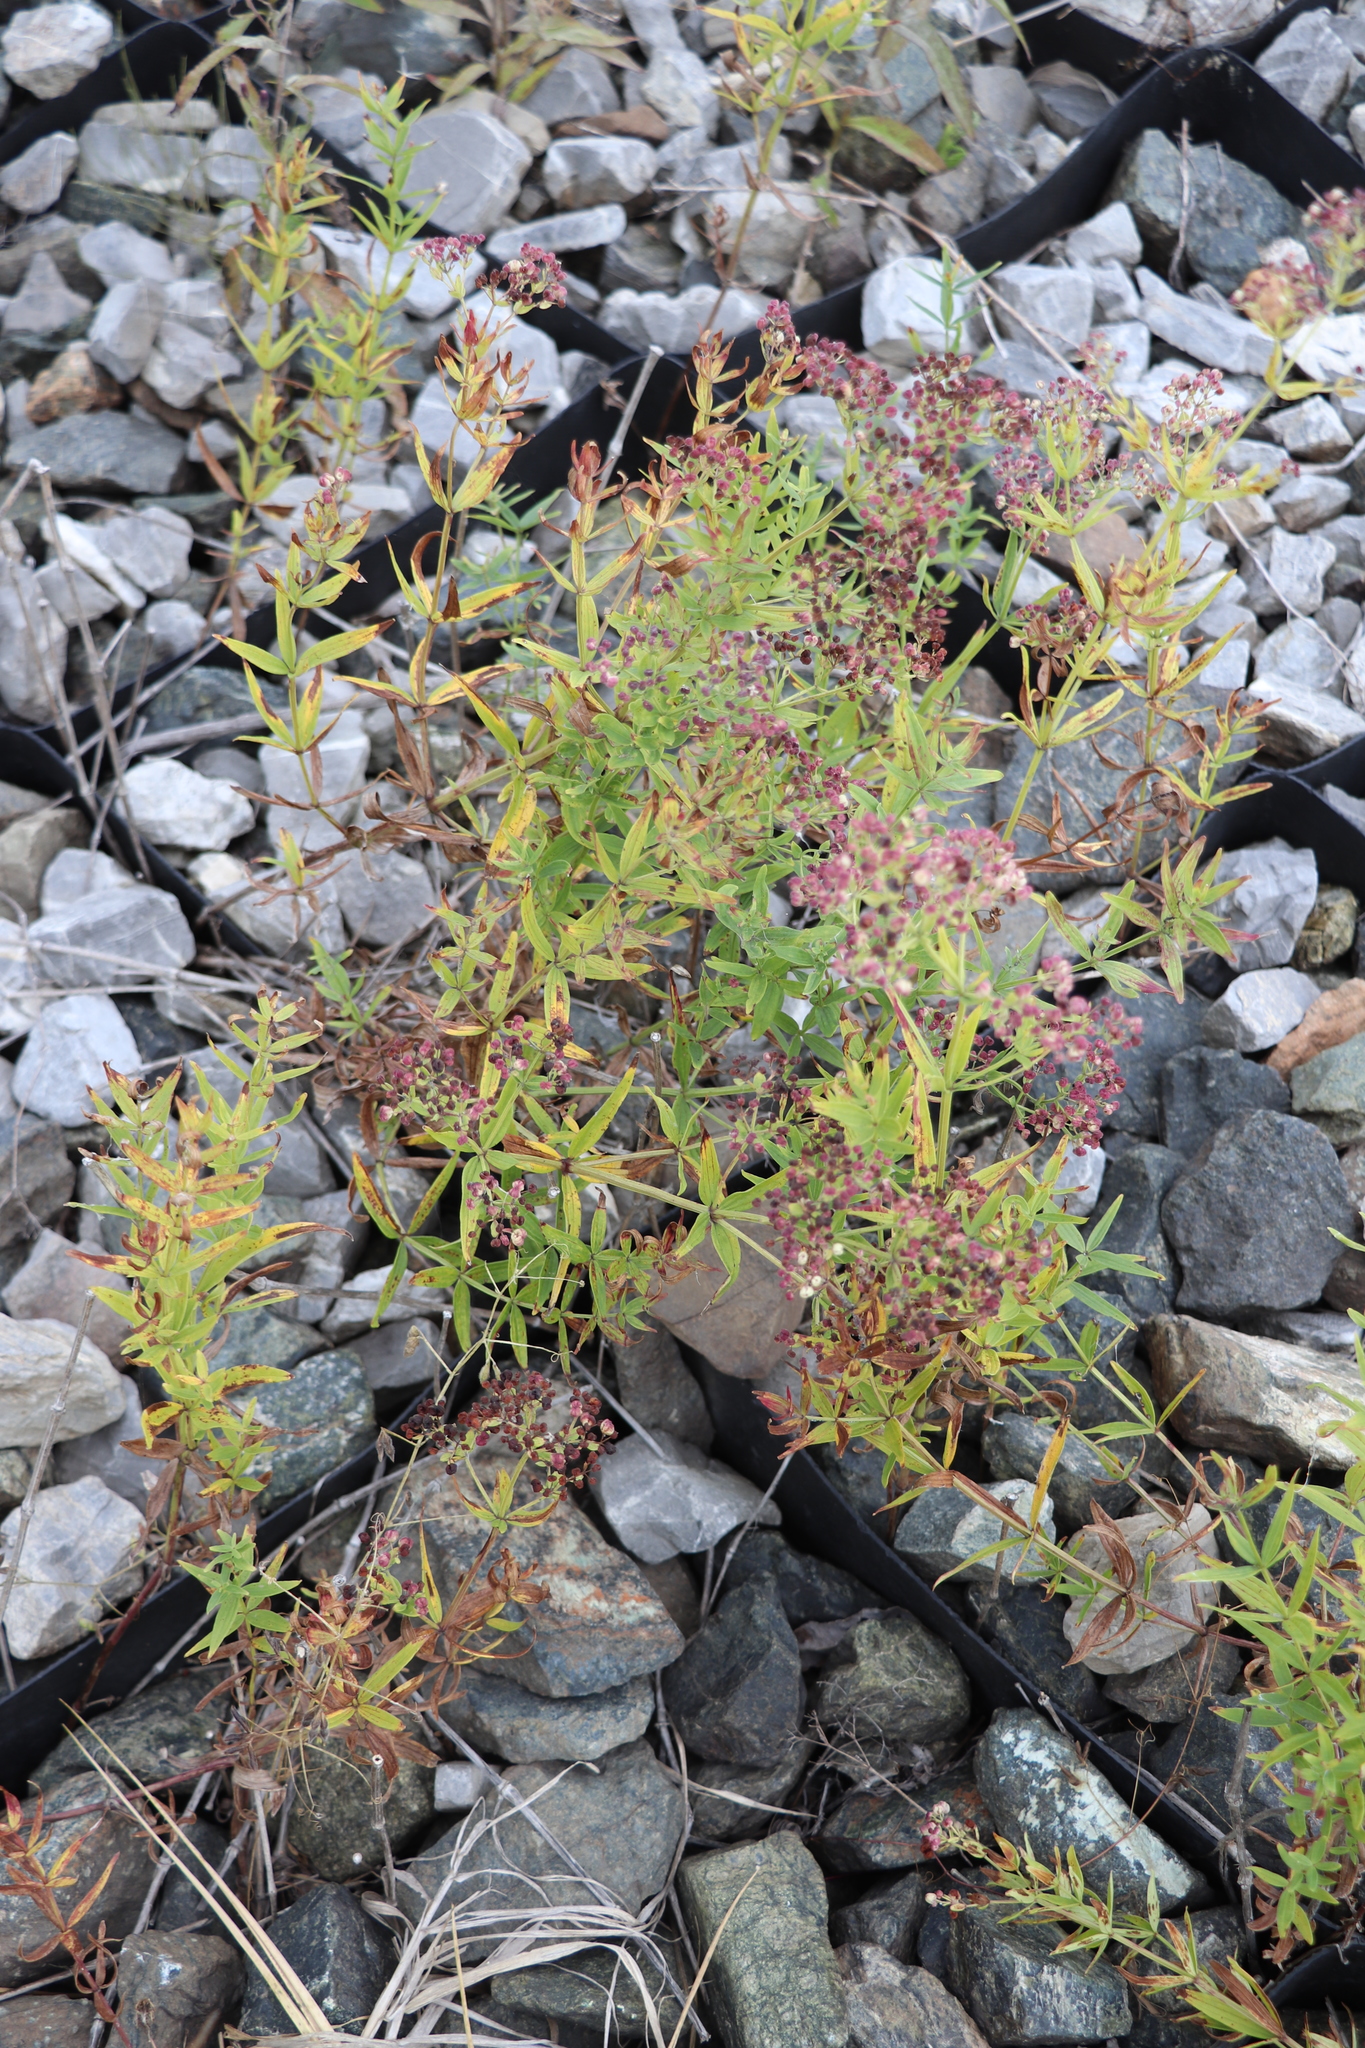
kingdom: Plantae
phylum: Tracheophyta
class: Magnoliopsida
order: Gentianales
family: Rubiaceae
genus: Galium
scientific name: Galium boreale
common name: Northern bedstraw
